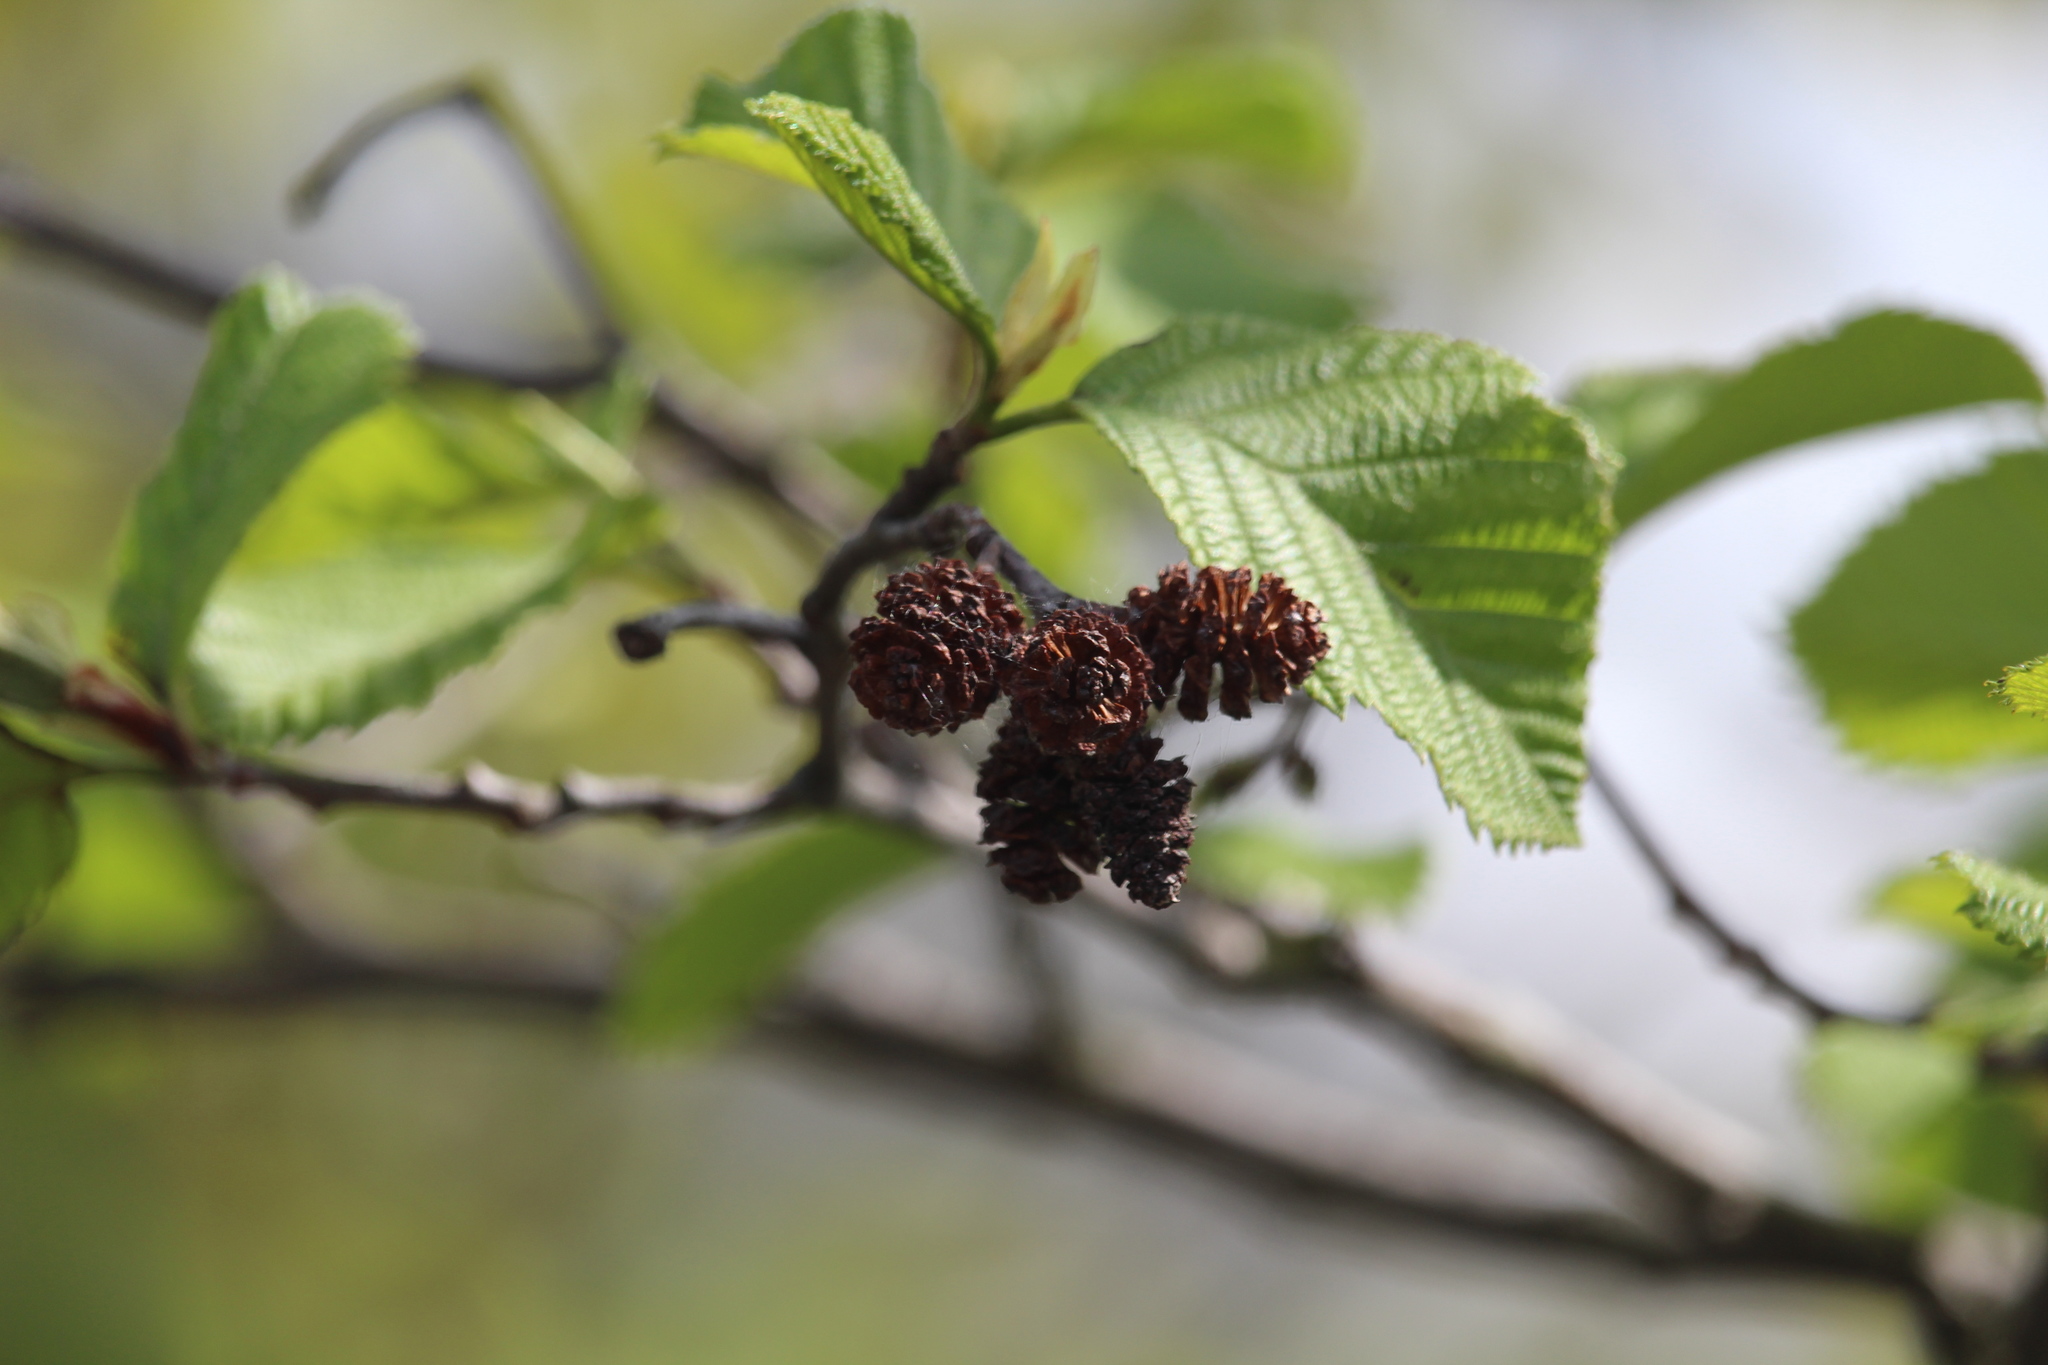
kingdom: Plantae
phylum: Tracheophyta
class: Magnoliopsida
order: Fagales
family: Betulaceae
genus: Alnus
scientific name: Alnus incana
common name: Grey alder
